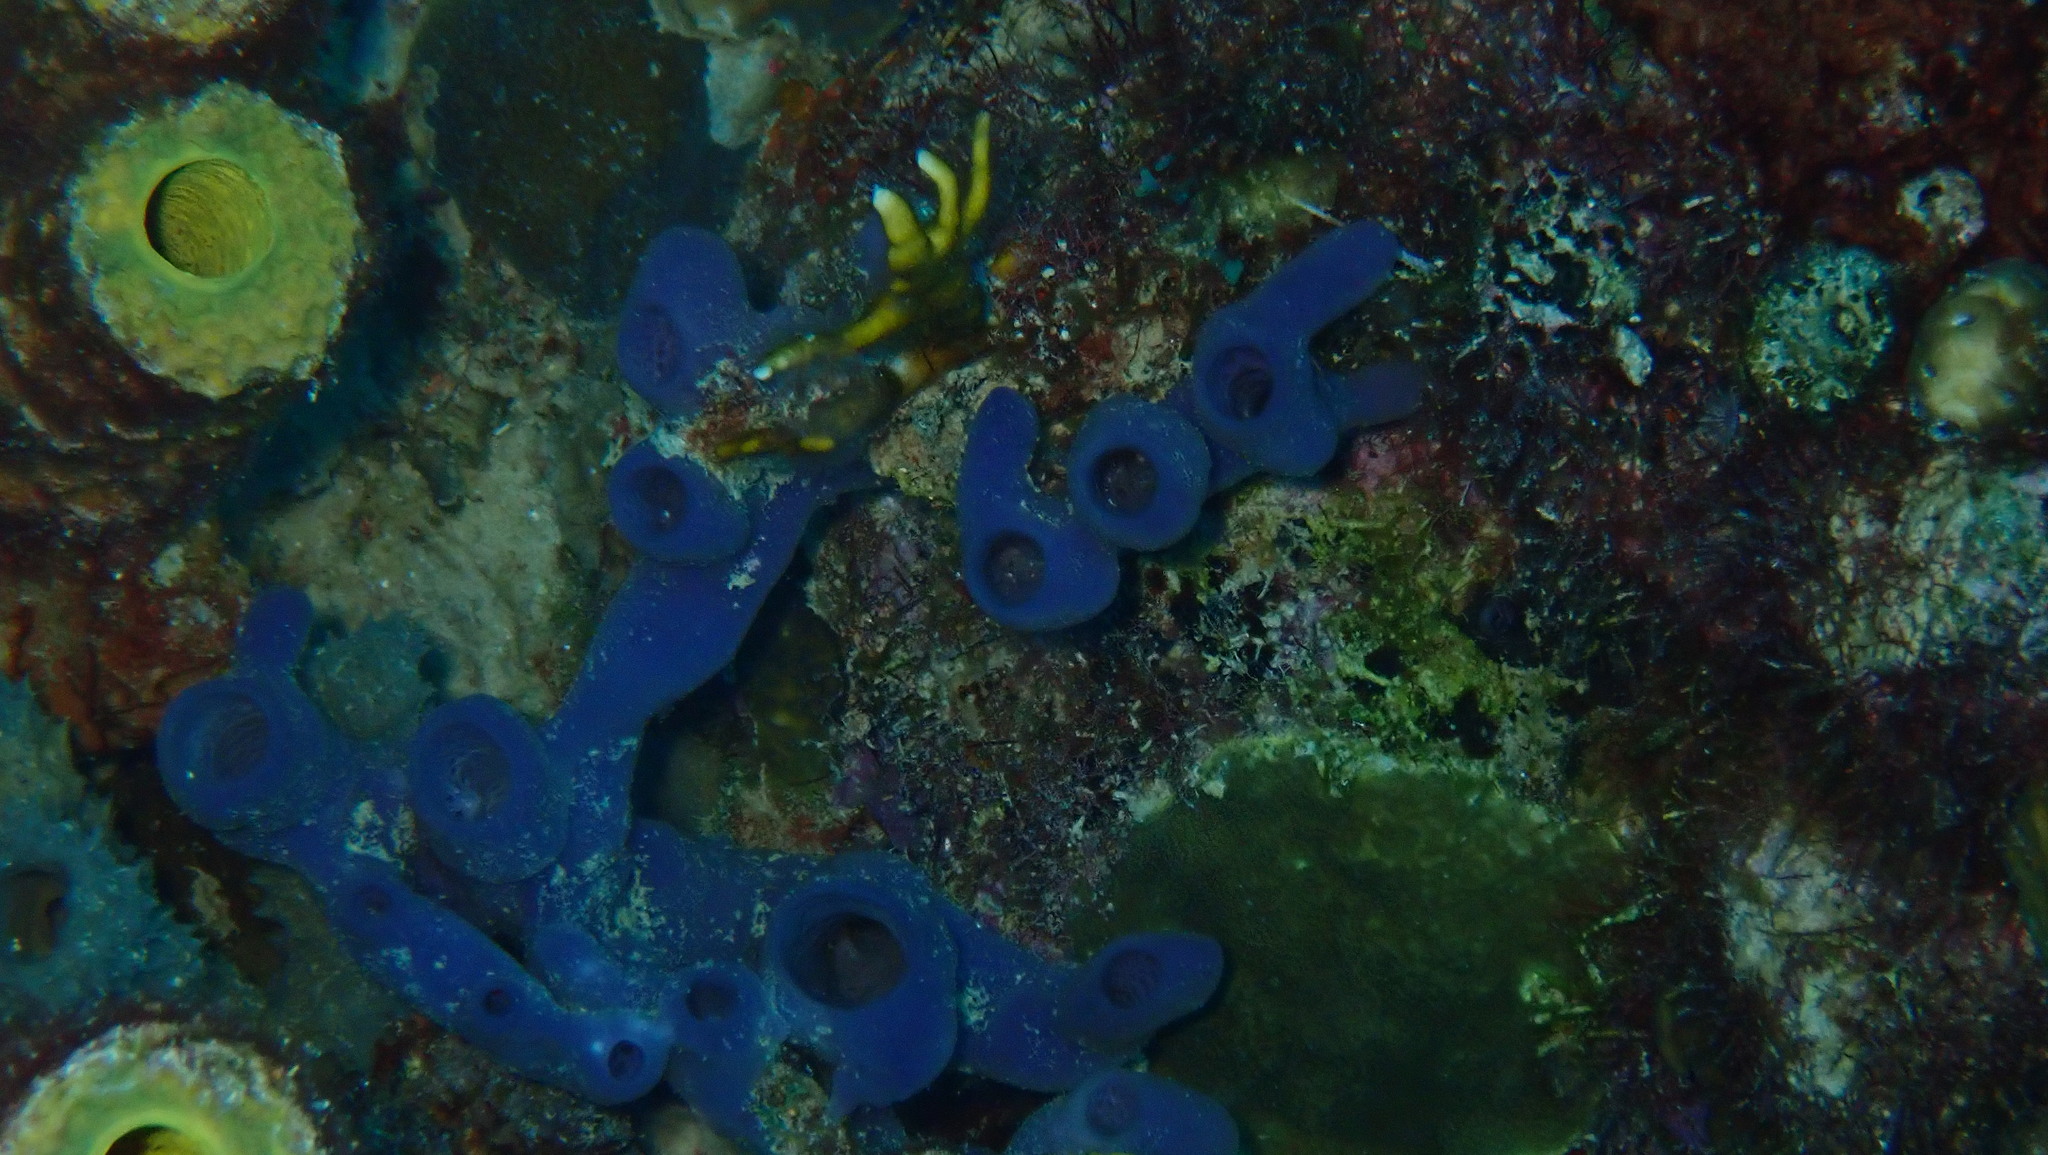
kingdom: Animalia
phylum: Porifera
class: Demospongiae
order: Haplosclerida
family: Callyspongiidae
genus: Callyspongia
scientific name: Callyspongia fallax
